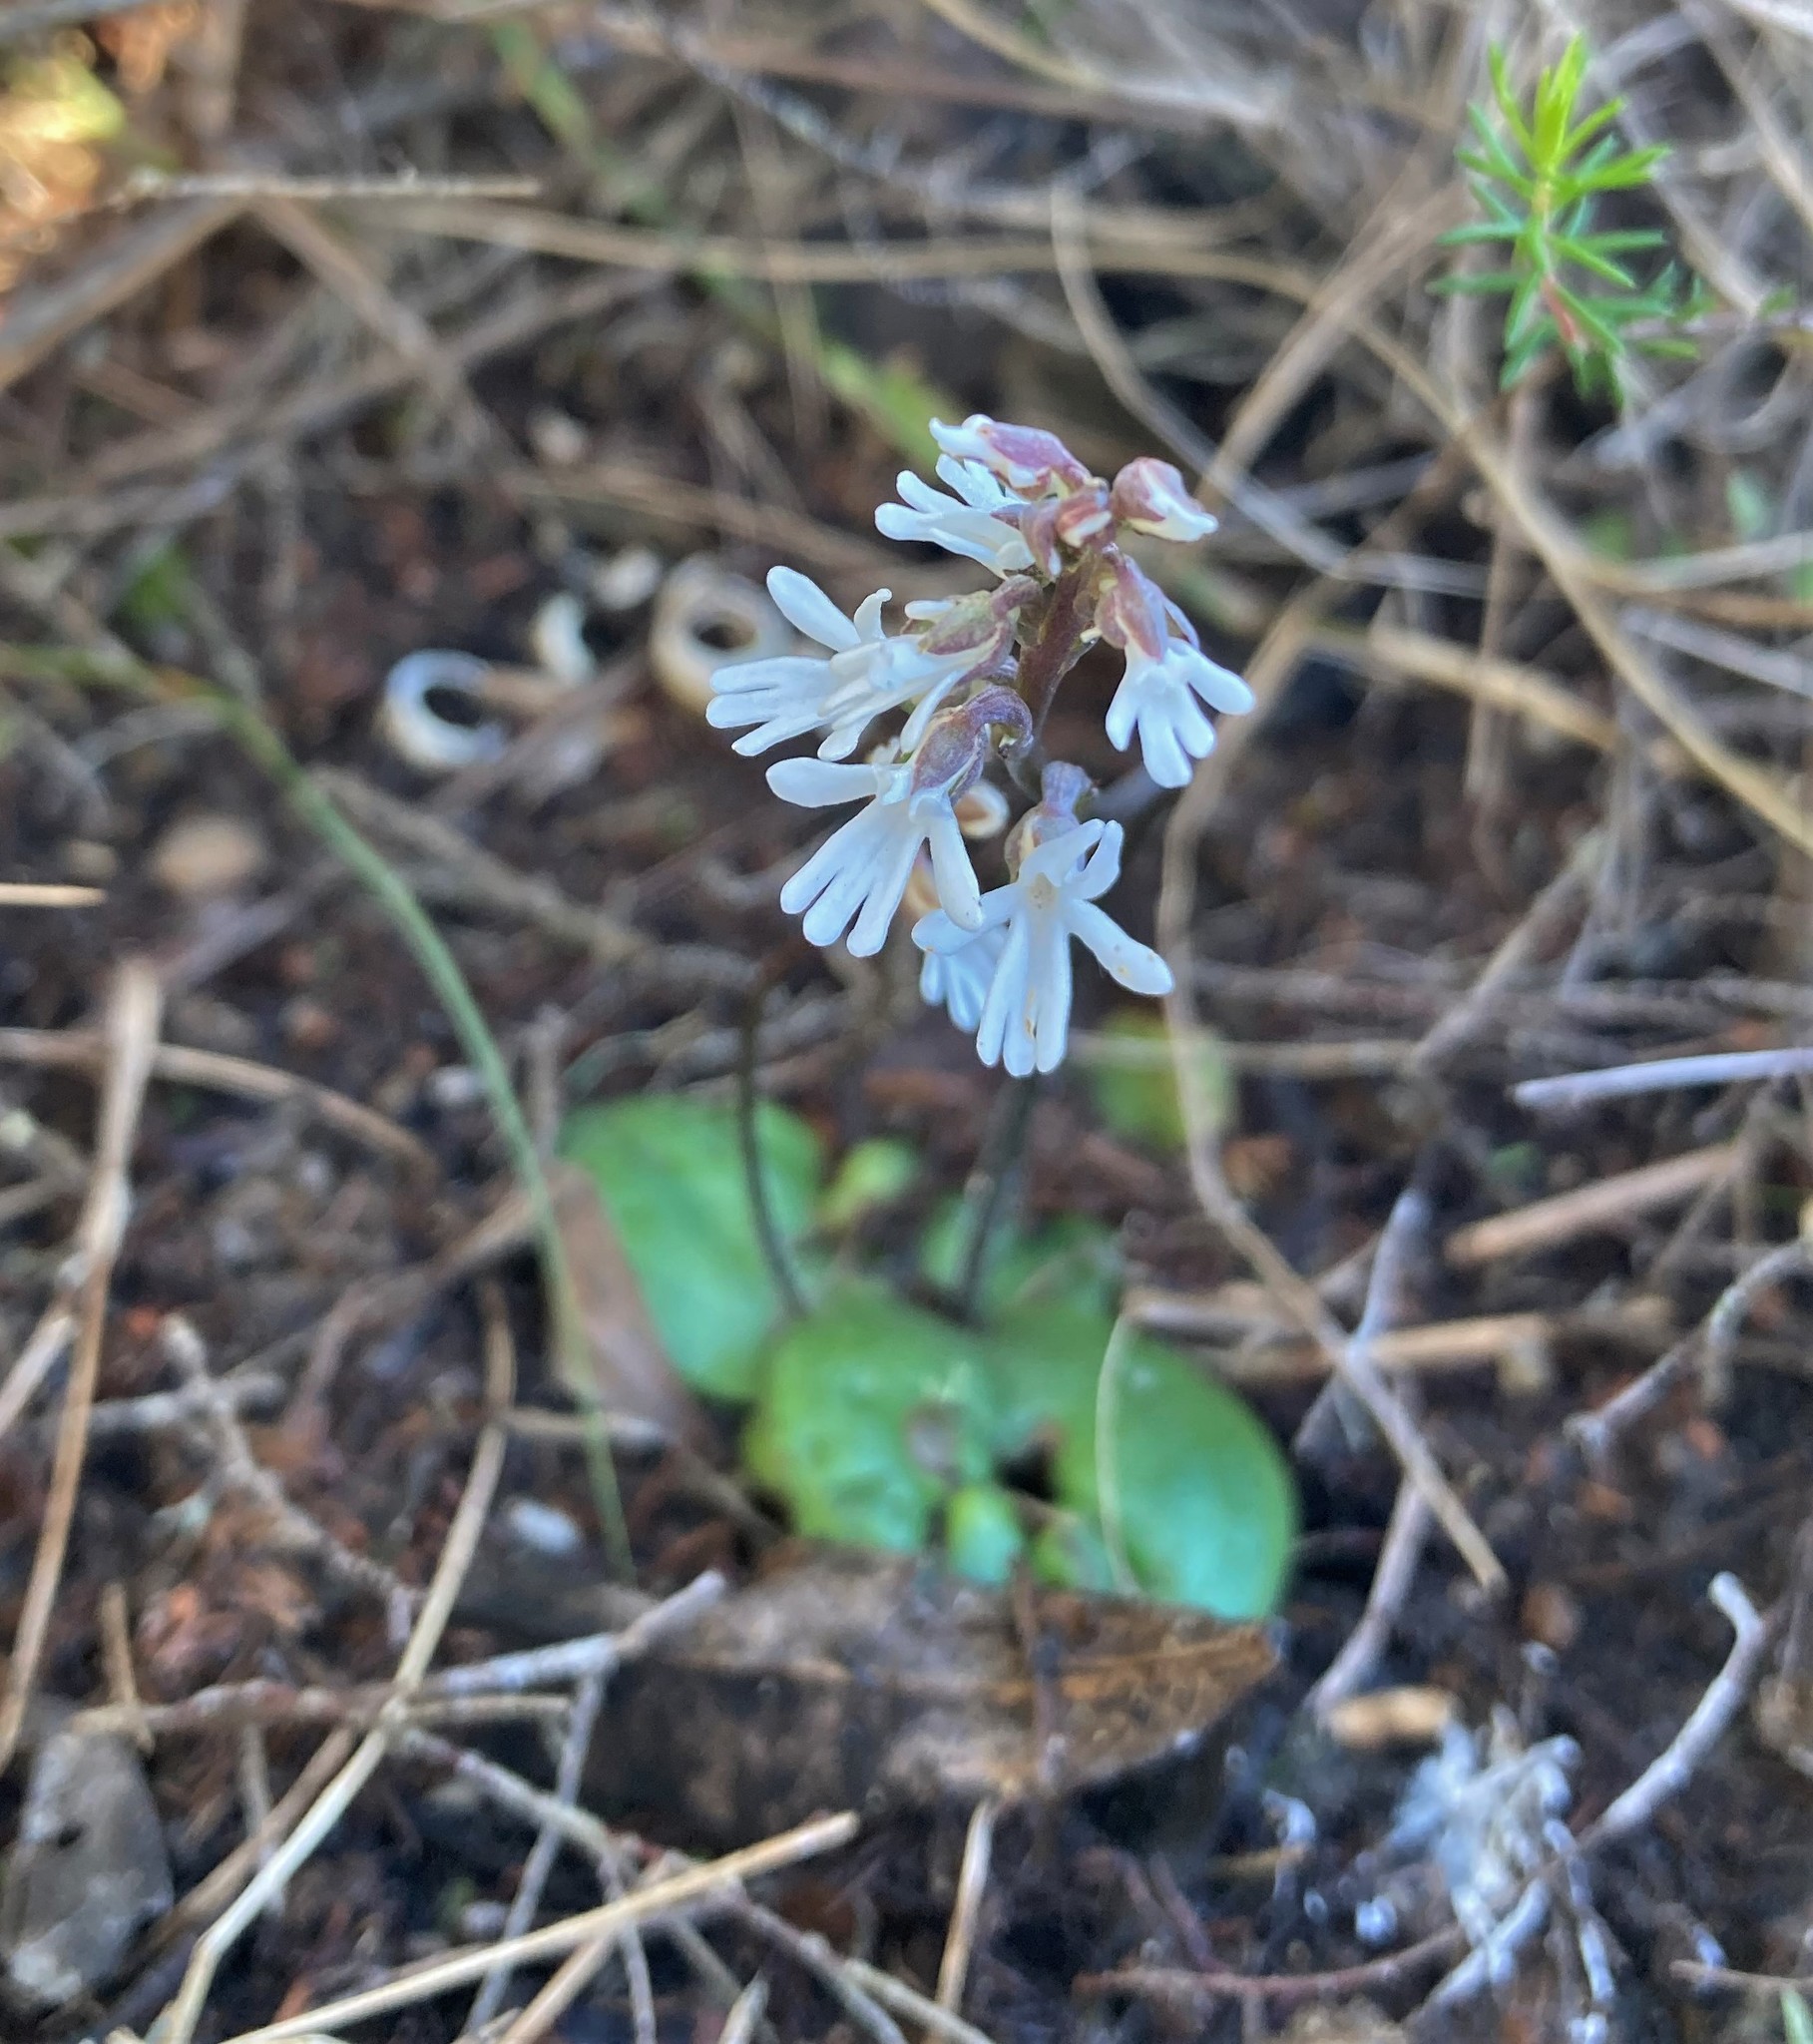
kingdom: Plantae
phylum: Tracheophyta
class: Liliopsida
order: Asparagales
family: Orchidaceae
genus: Holothrix
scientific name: Holothrix parviflora
